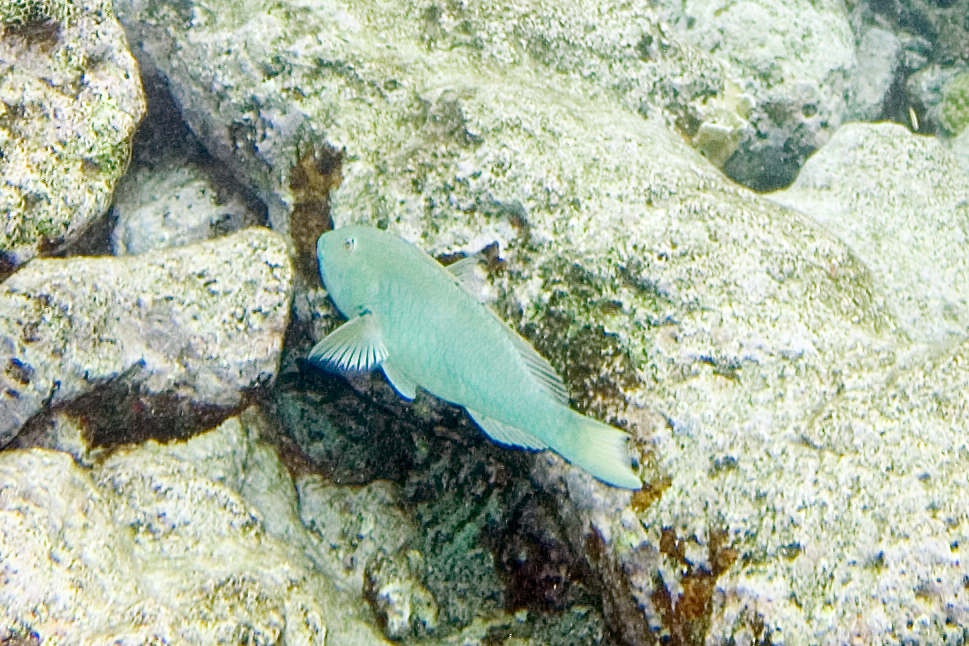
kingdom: Animalia
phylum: Chordata
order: Perciformes
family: Scaridae
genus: Sparisoma
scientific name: Sparisoma rubripinne
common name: Redfin parrotfish
